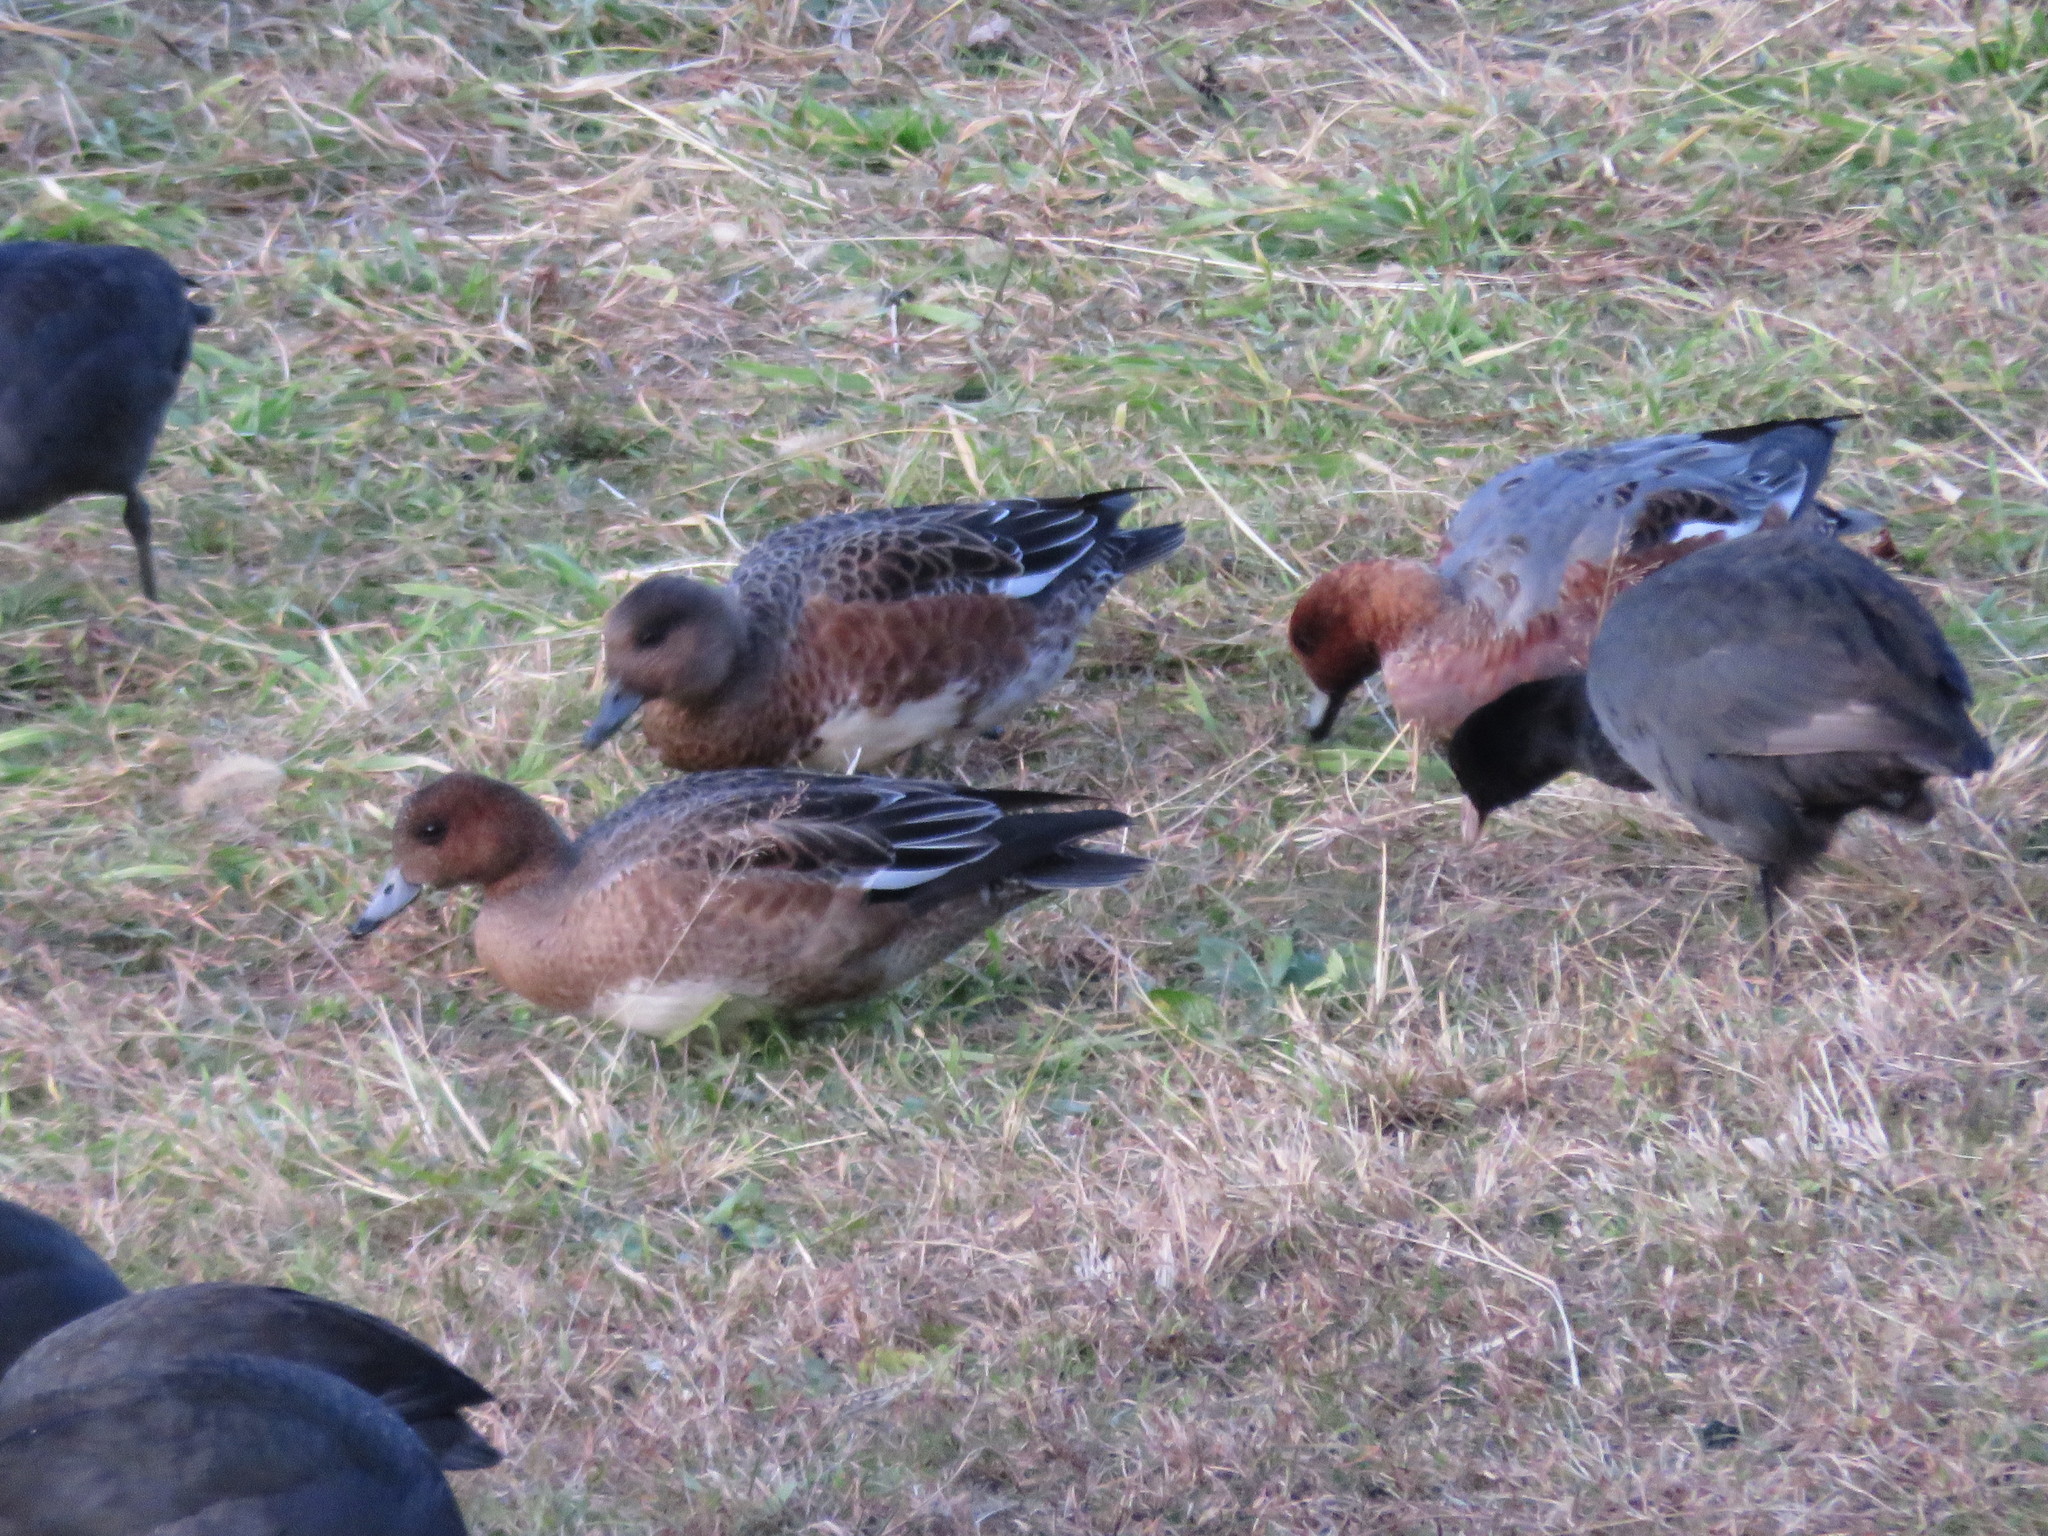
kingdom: Animalia
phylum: Chordata
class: Aves
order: Anseriformes
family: Anatidae
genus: Mareca
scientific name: Mareca penelope
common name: Eurasian wigeon
